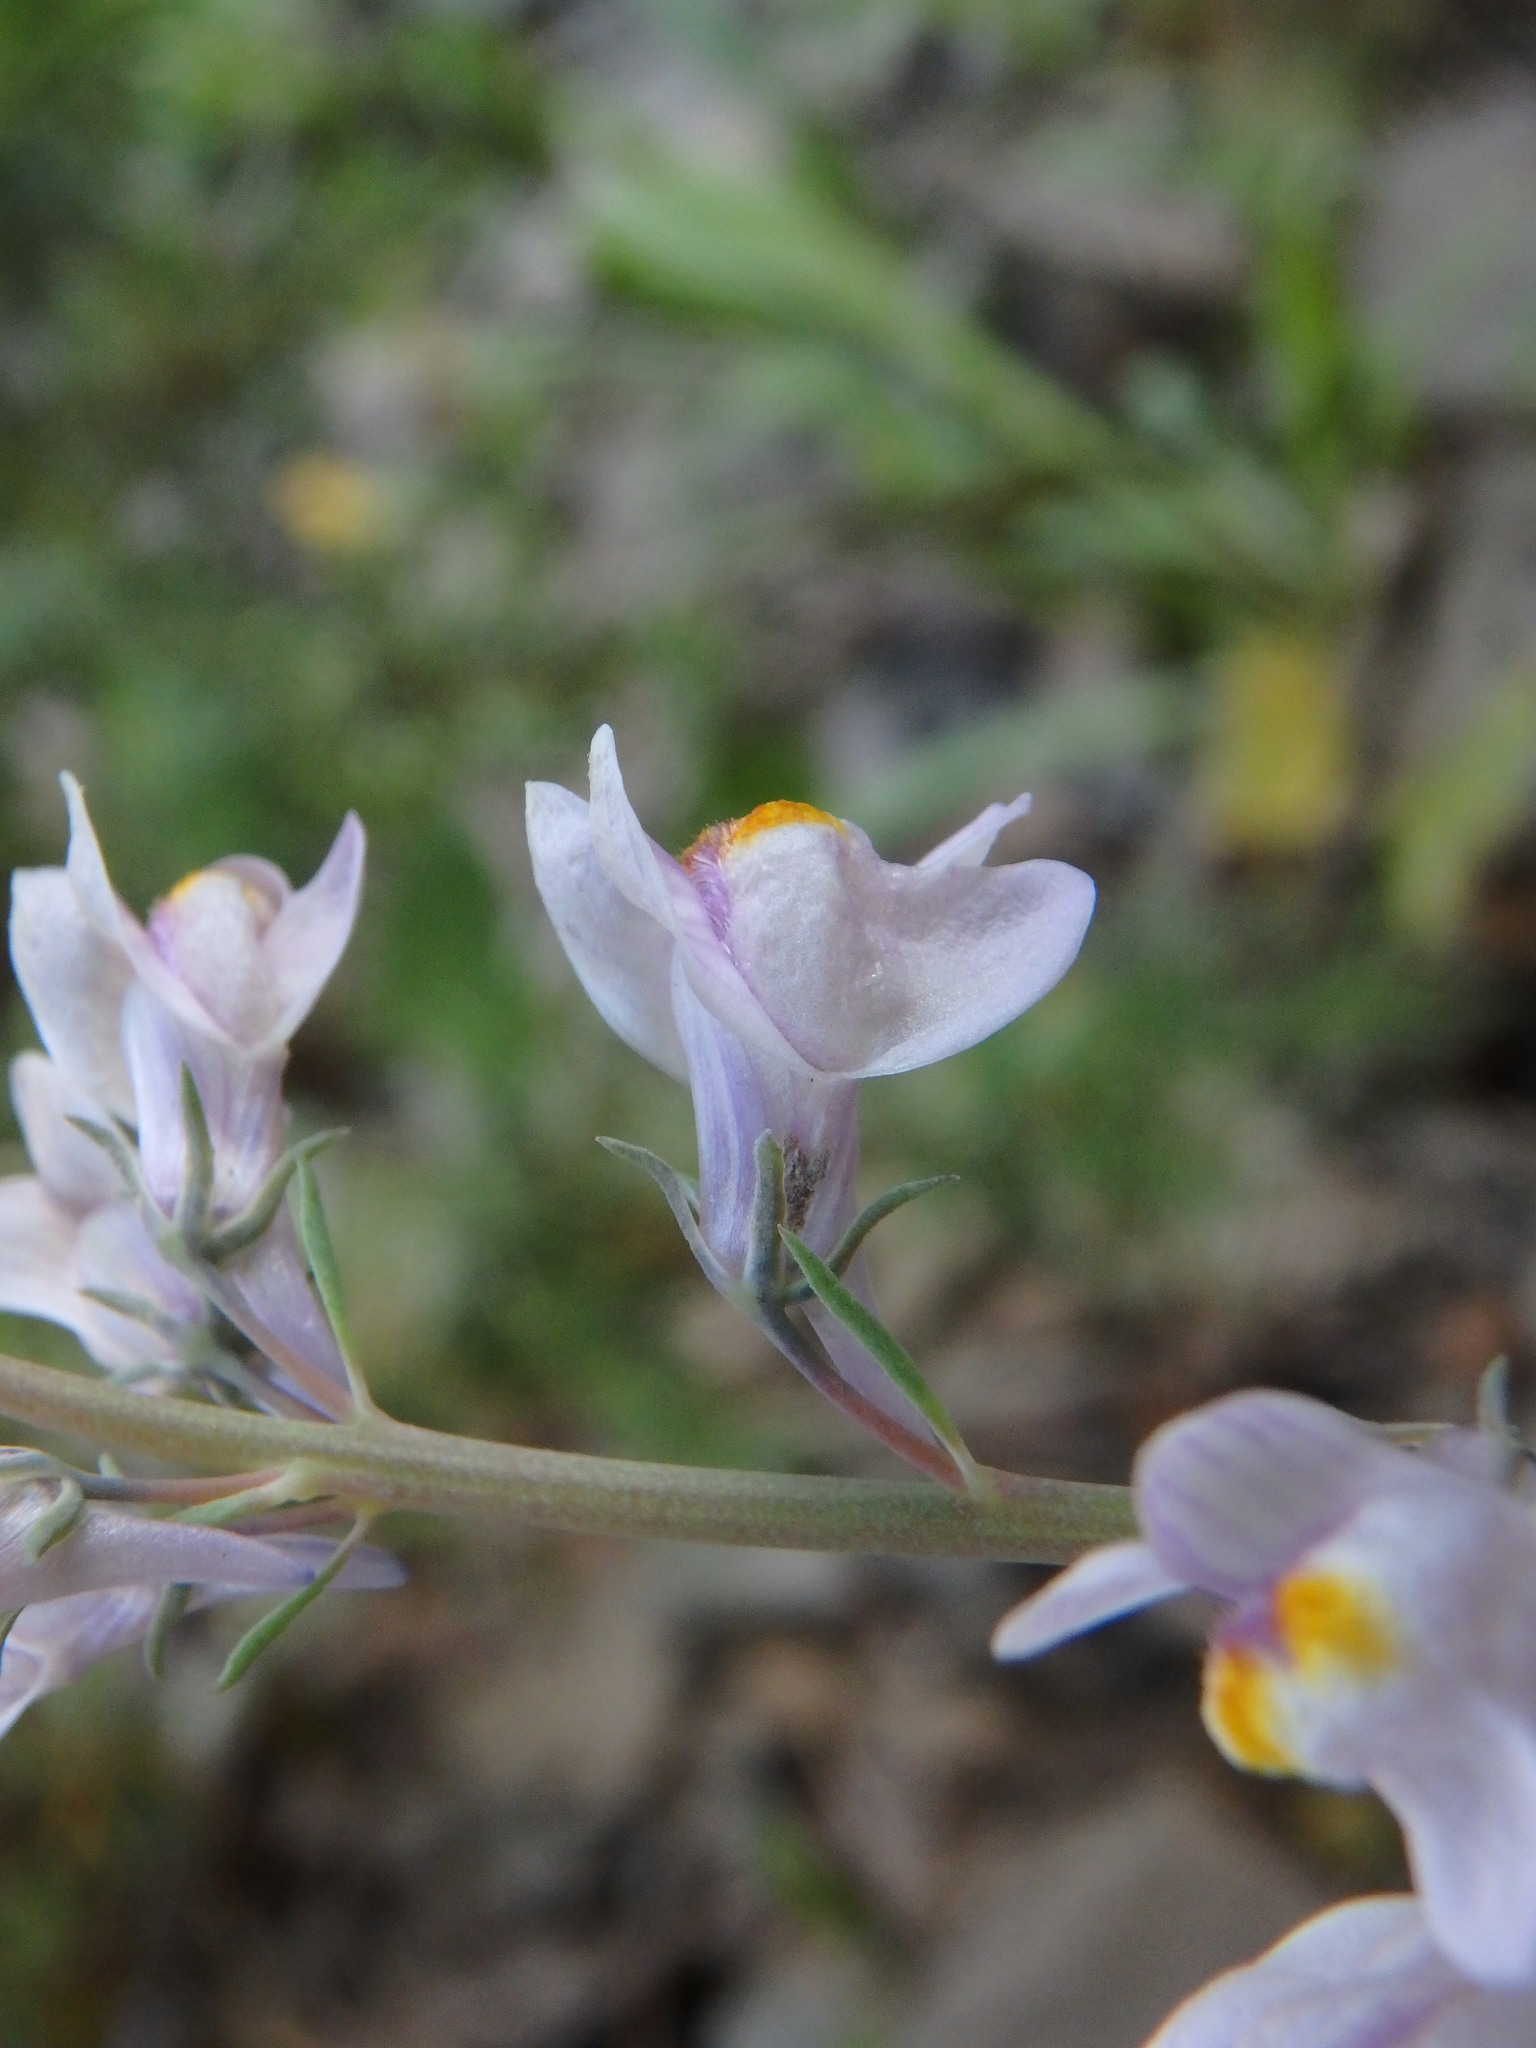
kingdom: Plantae
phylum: Tracheophyta
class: Magnoliopsida
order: Lamiales
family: Plantaginaceae
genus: Linaria
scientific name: Linaria repens
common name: Pale toadflax
